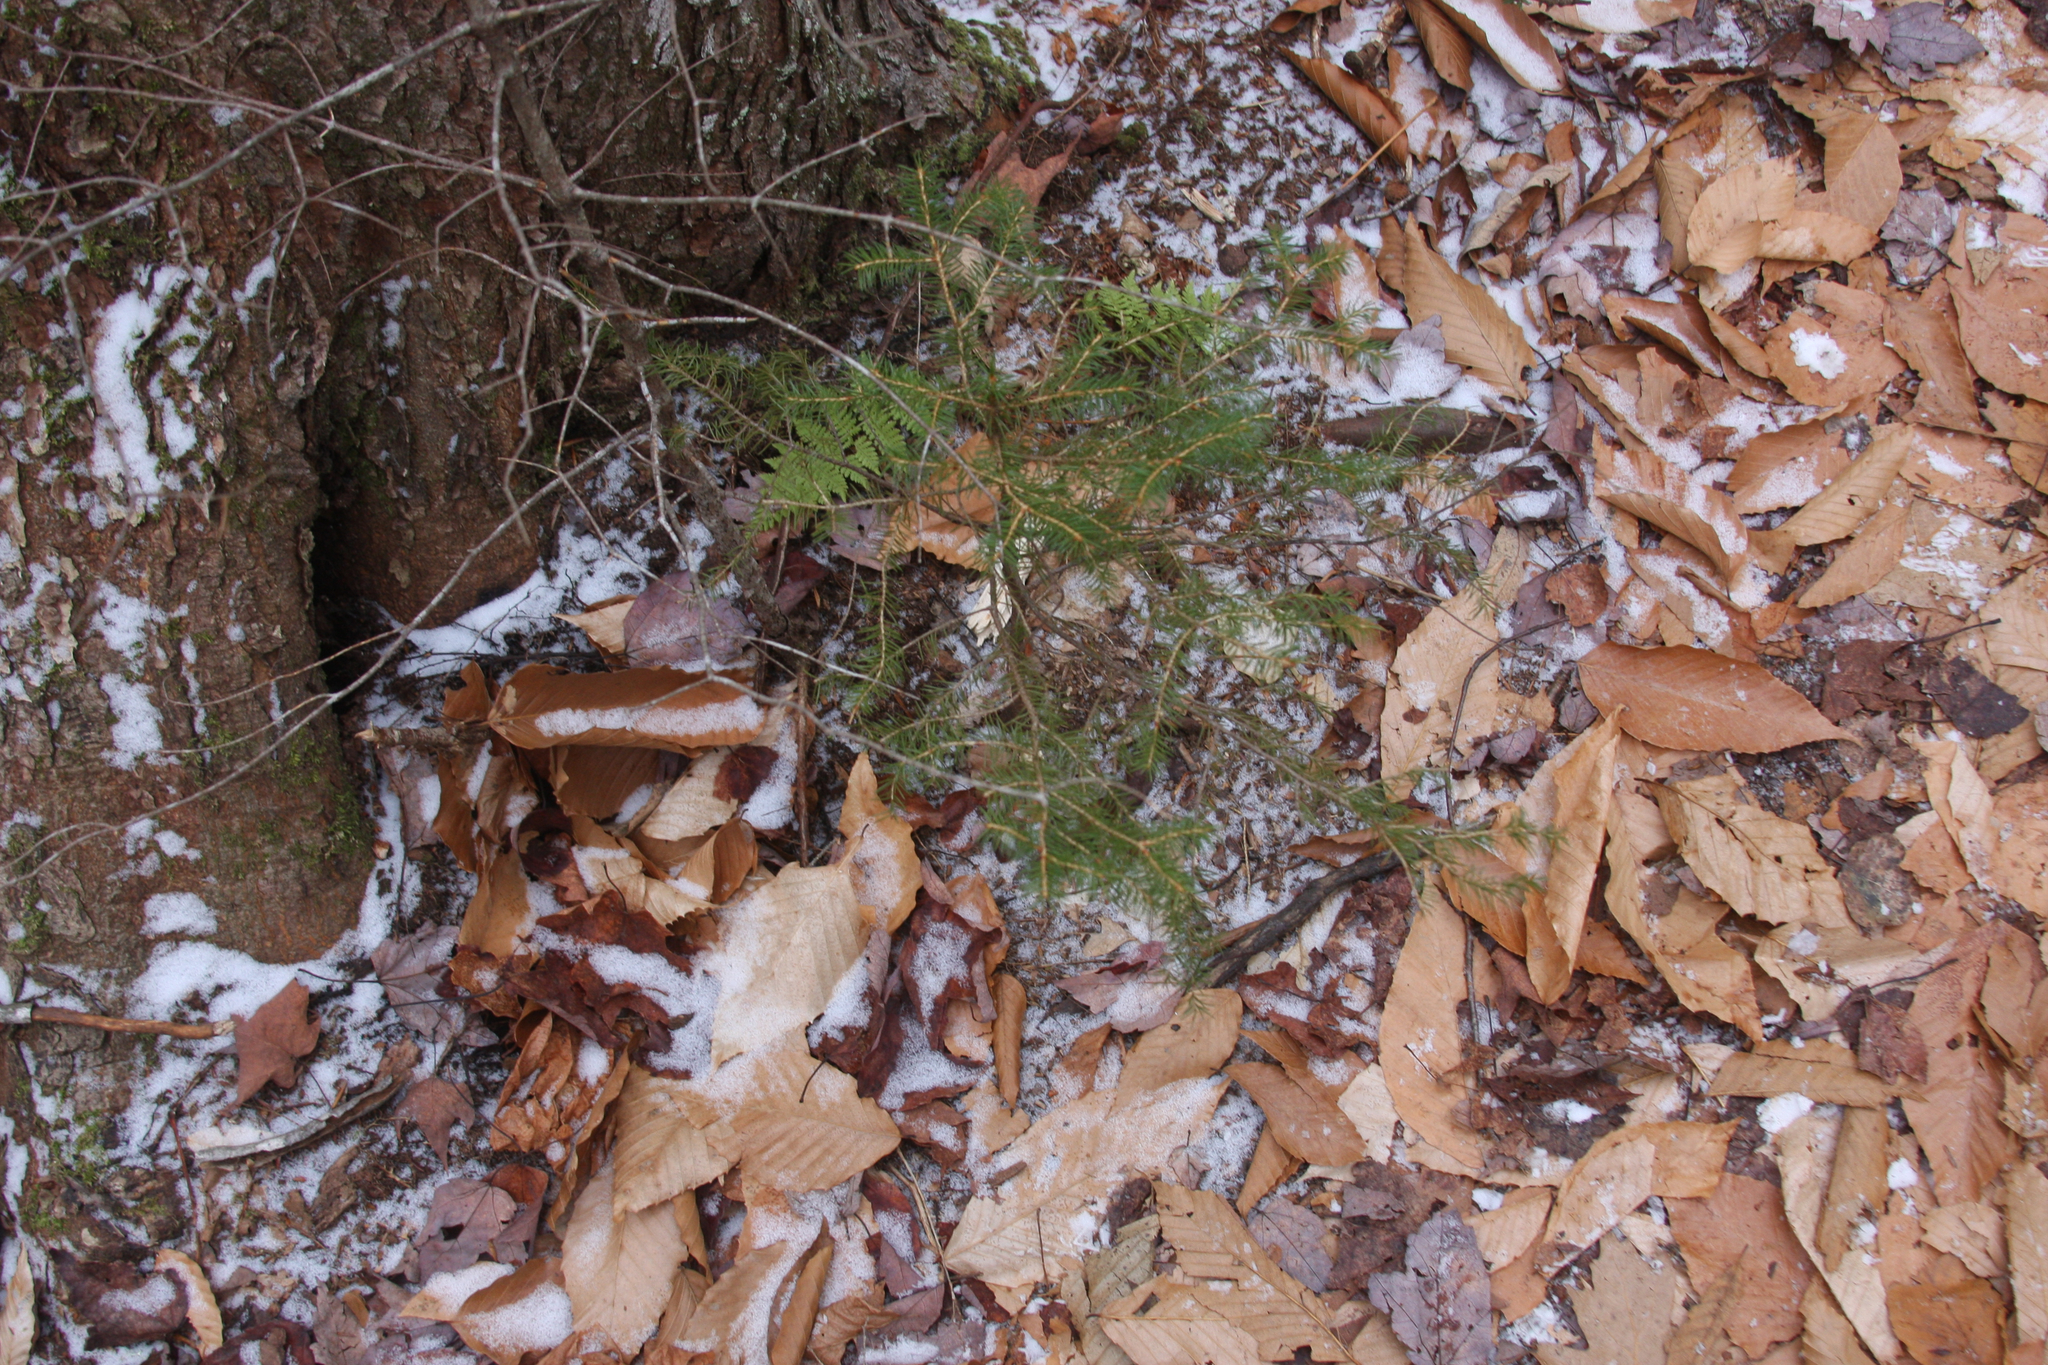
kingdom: Plantae
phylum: Tracheophyta
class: Magnoliopsida
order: Fagales
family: Fagaceae
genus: Fagus
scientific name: Fagus grandifolia
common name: American beech
